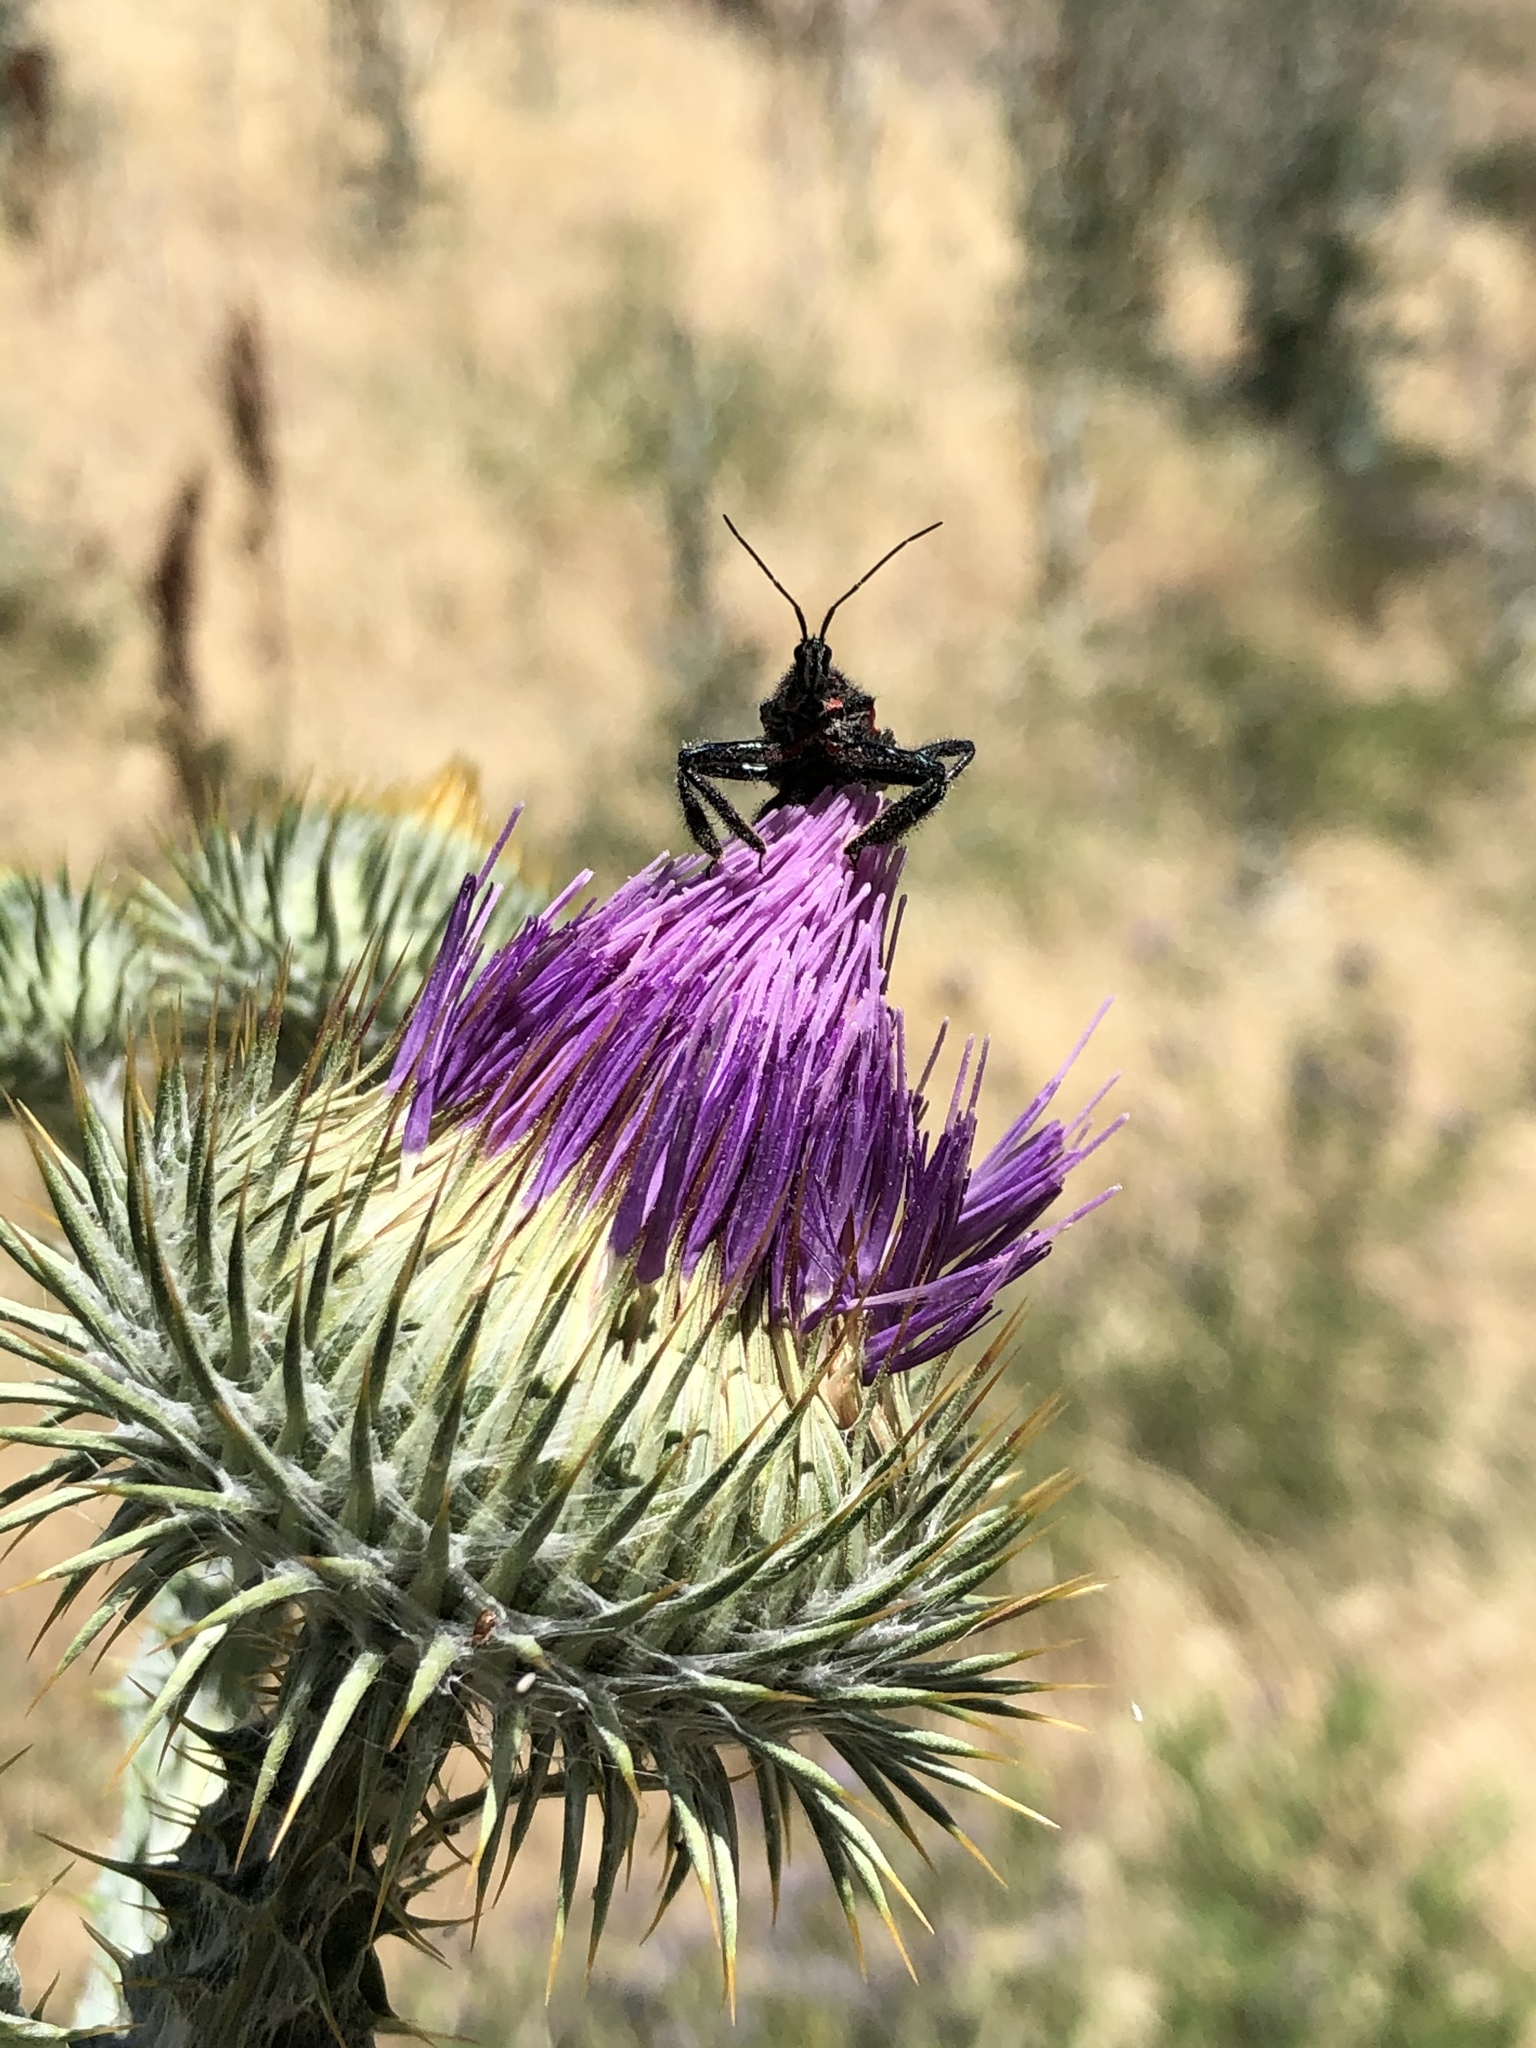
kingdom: Animalia
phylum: Arthropoda
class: Insecta
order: Hemiptera
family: Reduviidae
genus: Apiomerus
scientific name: Apiomerus montanus
